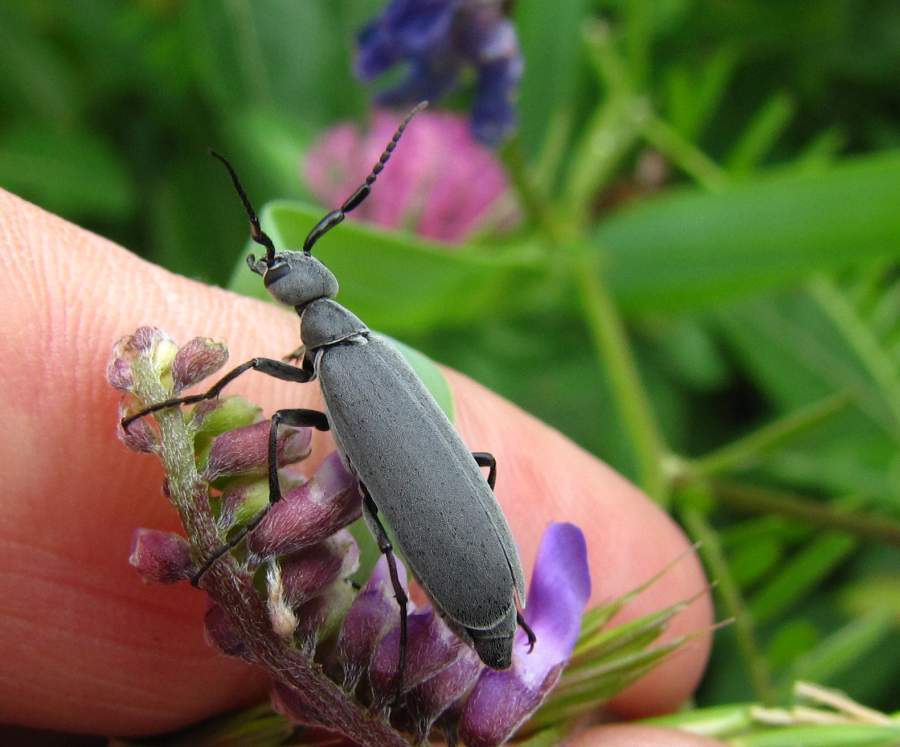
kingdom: Animalia
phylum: Arthropoda
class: Insecta
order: Coleoptera
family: Meloidae
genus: Epicauta
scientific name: Epicauta murina
